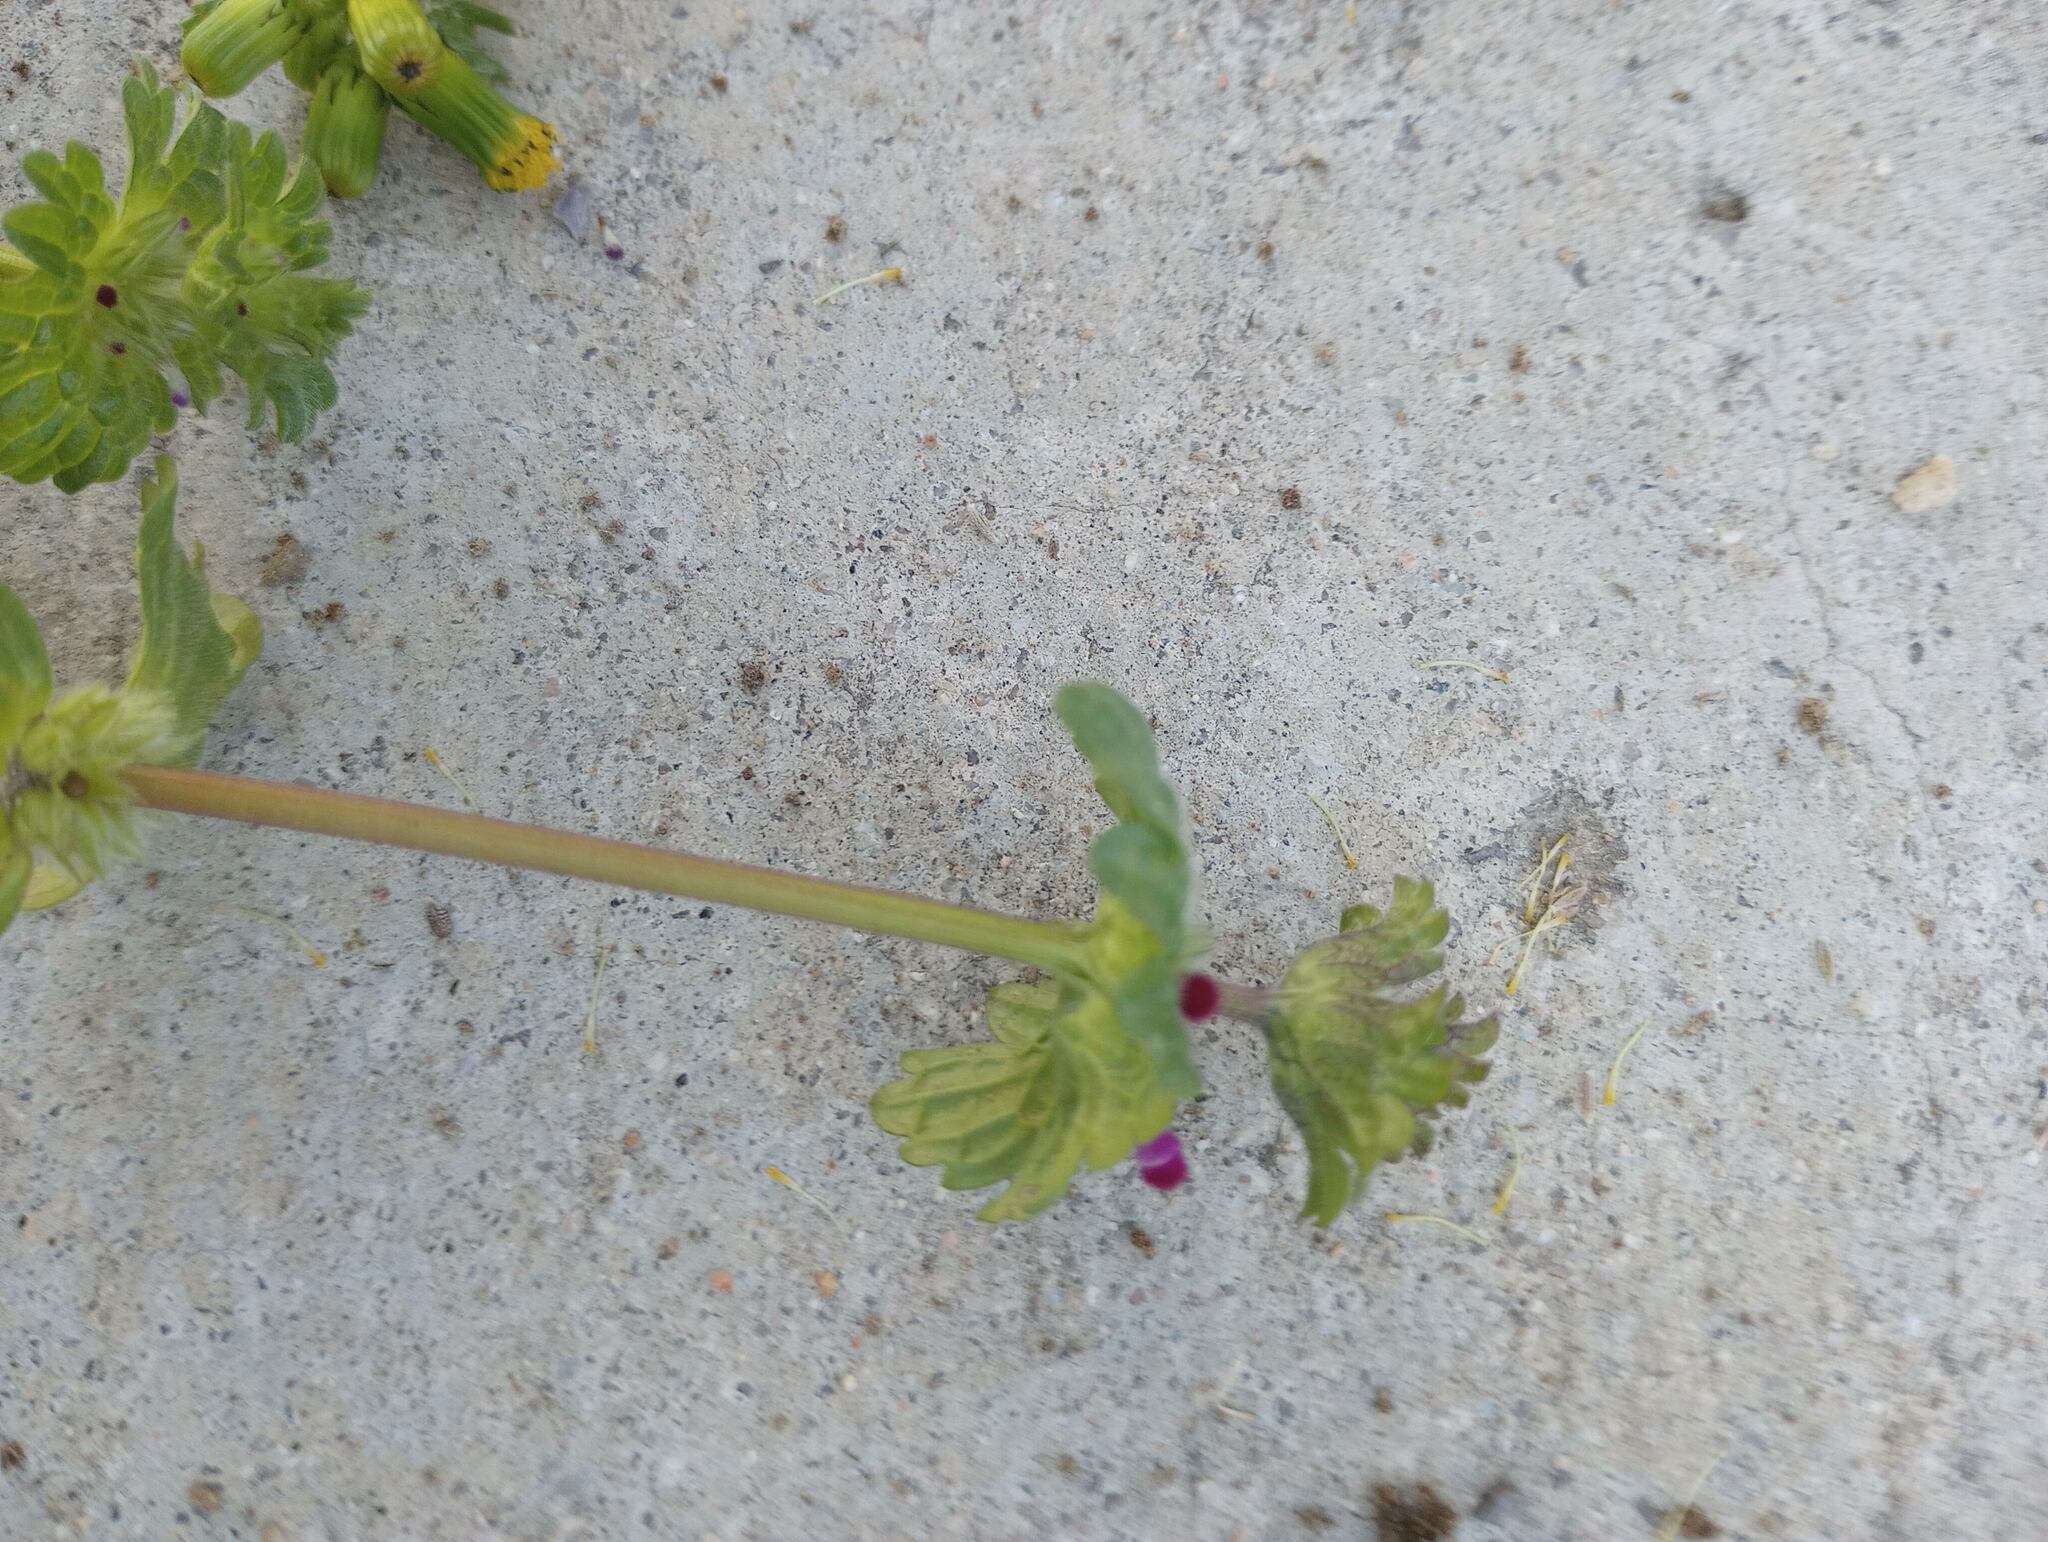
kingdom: Plantae
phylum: Tracheophyta
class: Magnoliopsida
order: Lamiales
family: Lamiaceae
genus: Lamium
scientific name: Lamium amplexicaule
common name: Henbit dead-nettle
